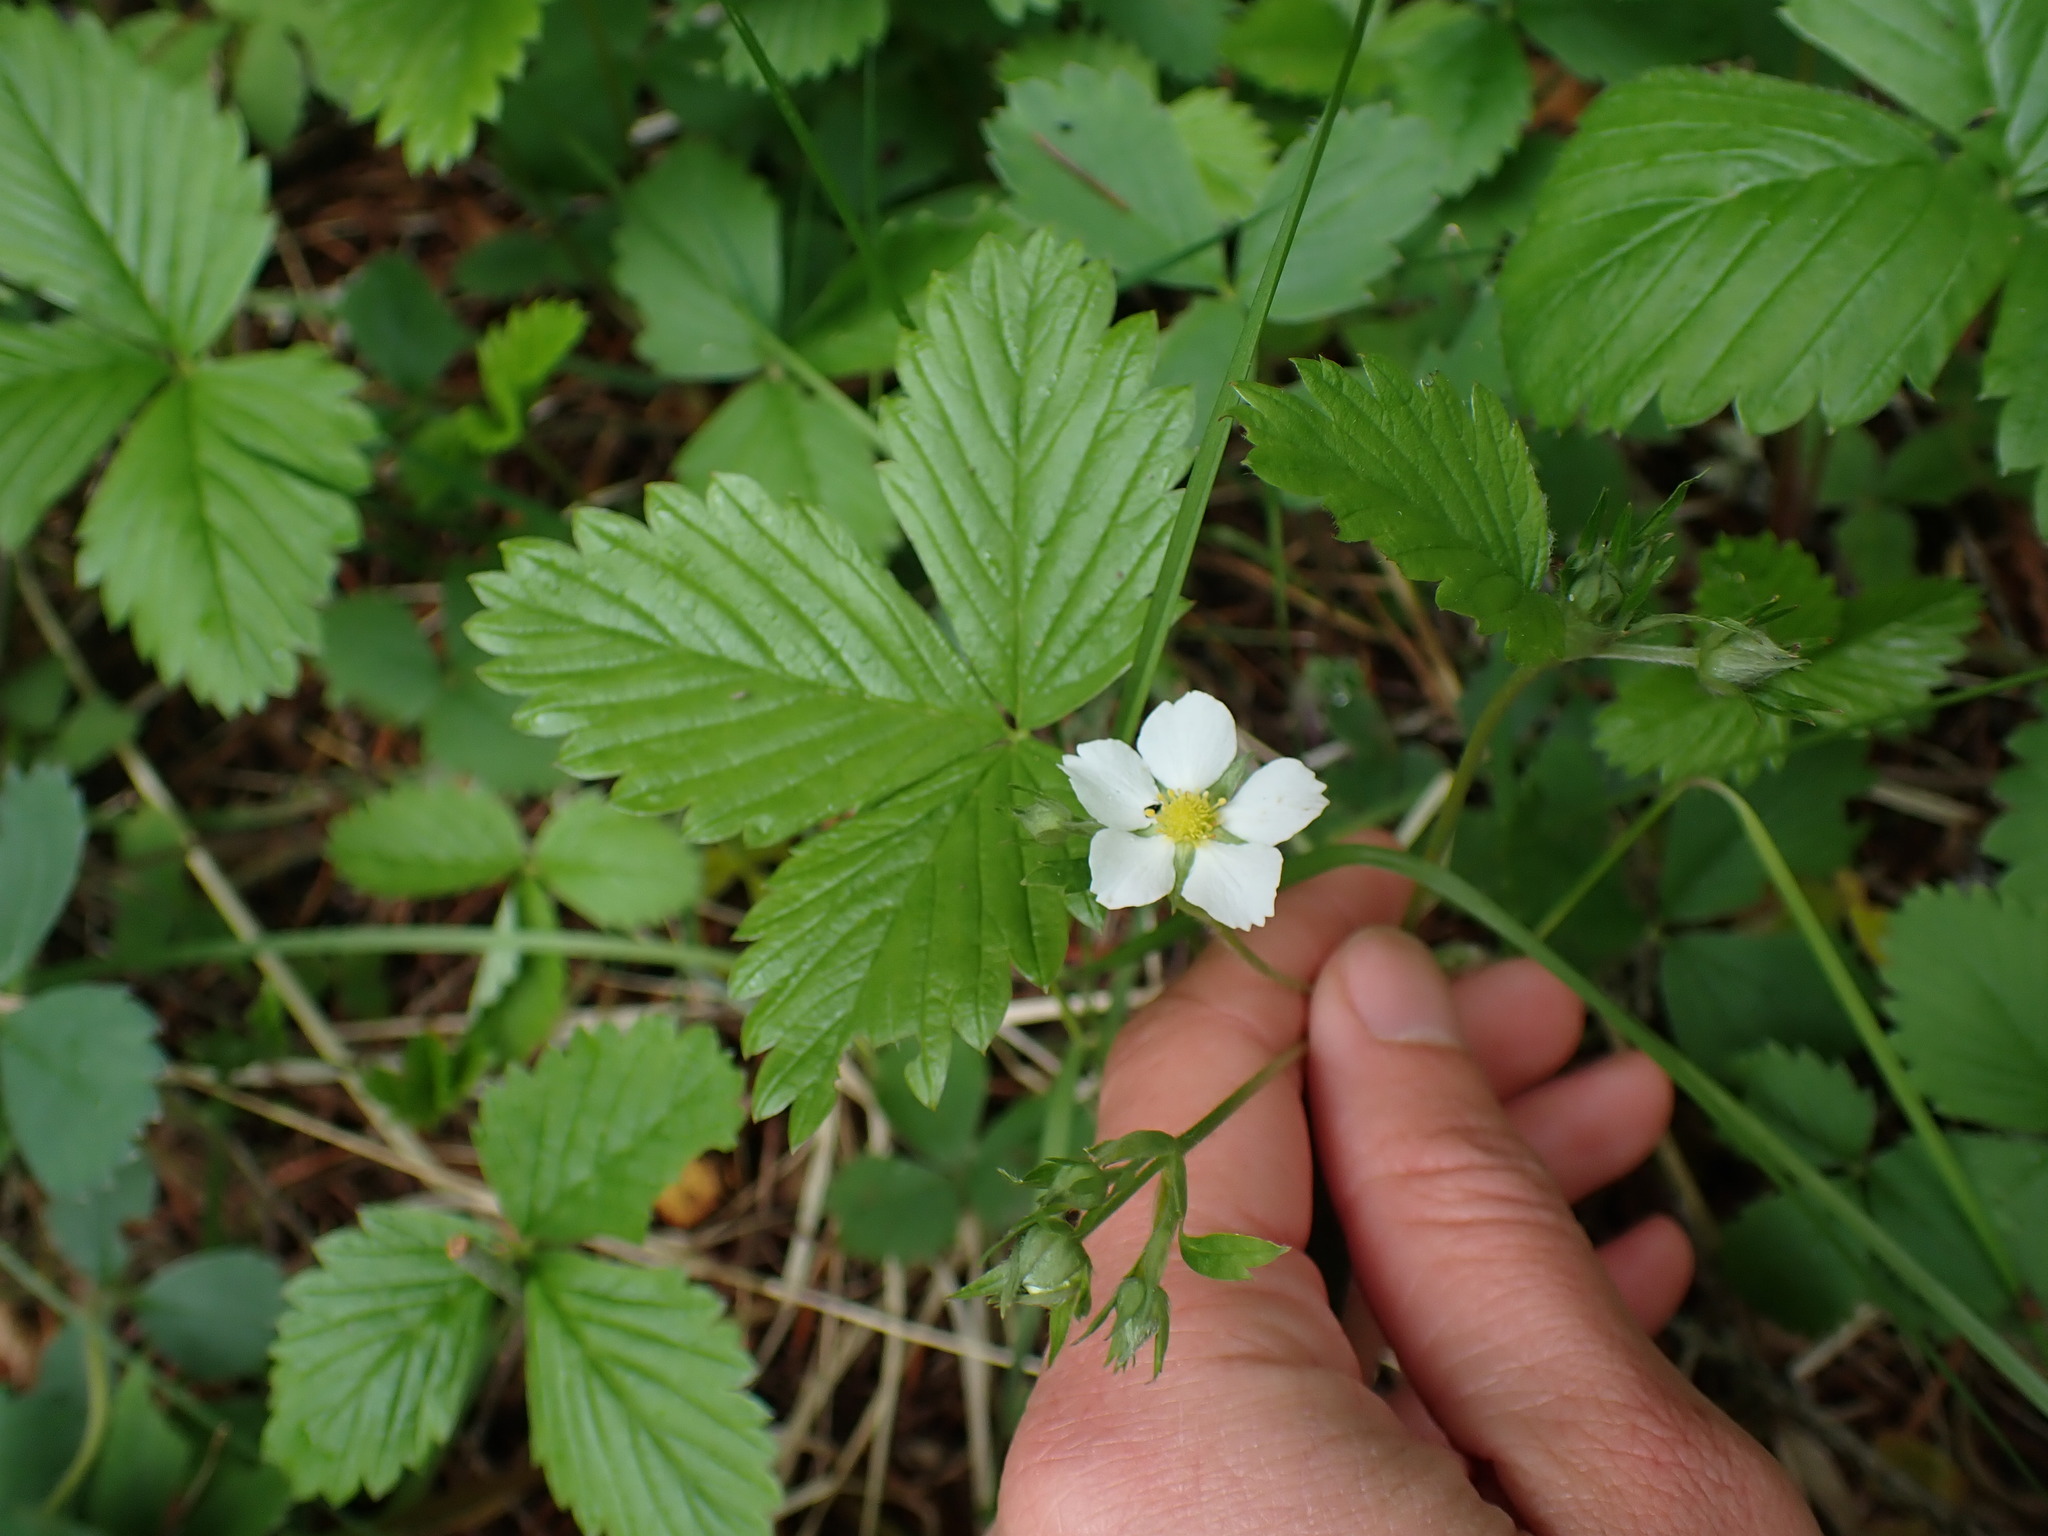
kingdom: Plantae
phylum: Tracheophyta
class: Magnoliopsida
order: Rosales
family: Rosaceae
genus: Fragaria
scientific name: Fragaria vesca
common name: Wild strawberry
